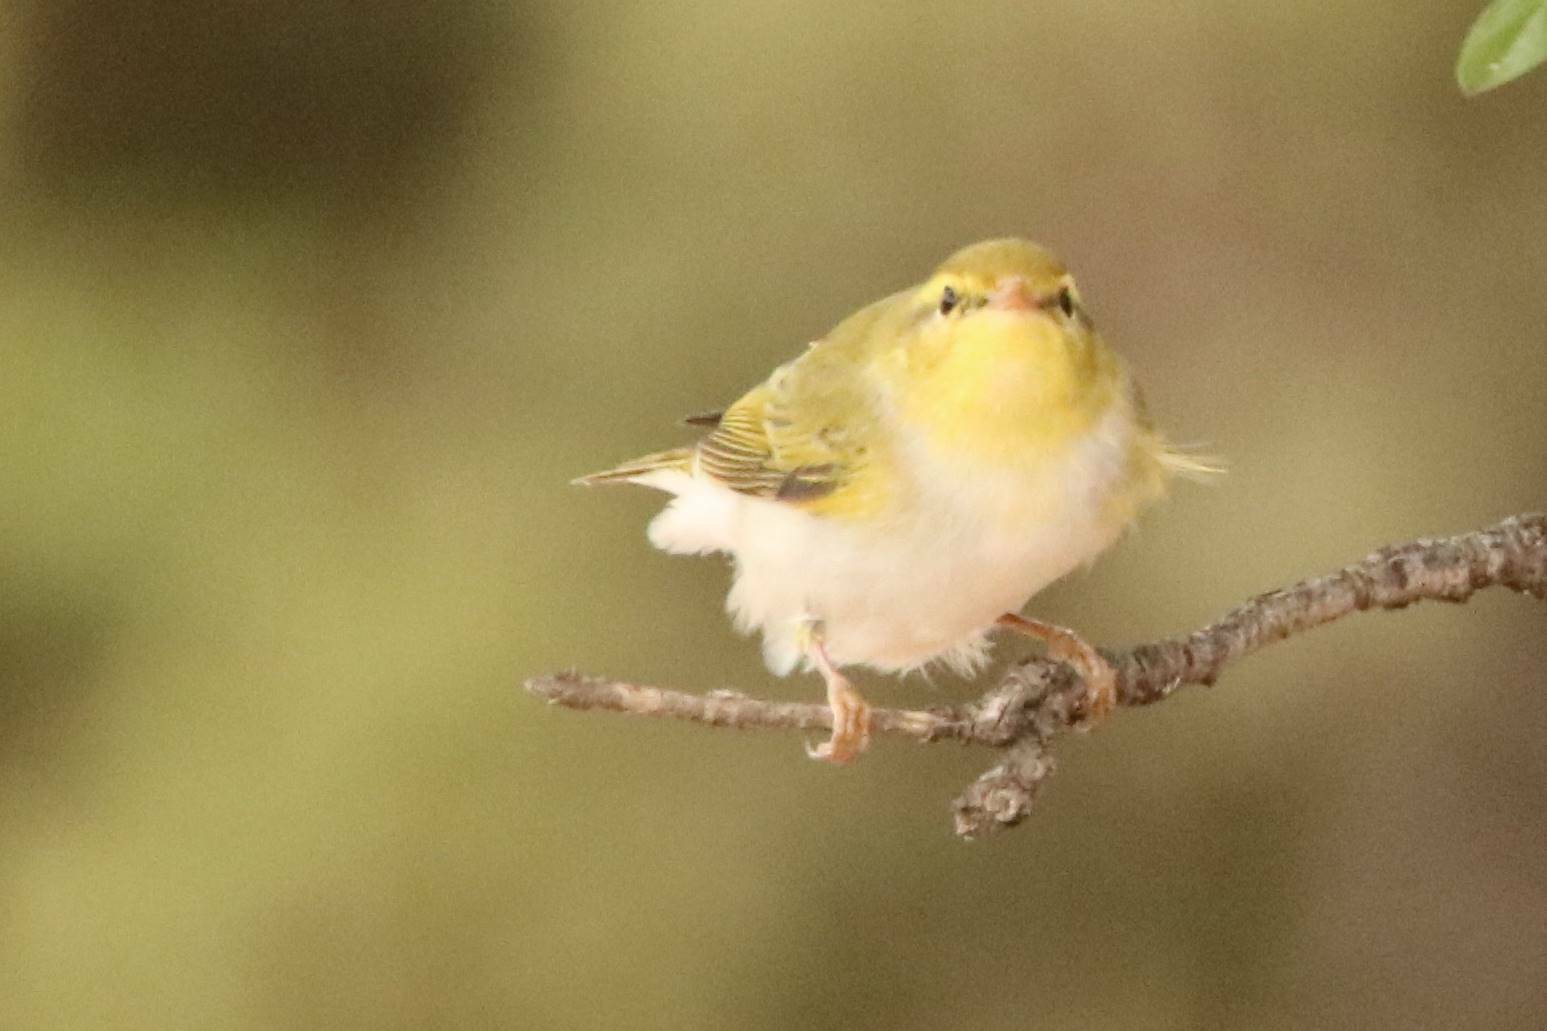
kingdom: Animalia
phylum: Chordata
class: Aves
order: Passeriformes
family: Phylloscopidae
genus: Phylloscopus
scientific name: Phylloscopus sibillatrix
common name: Wood warbler
